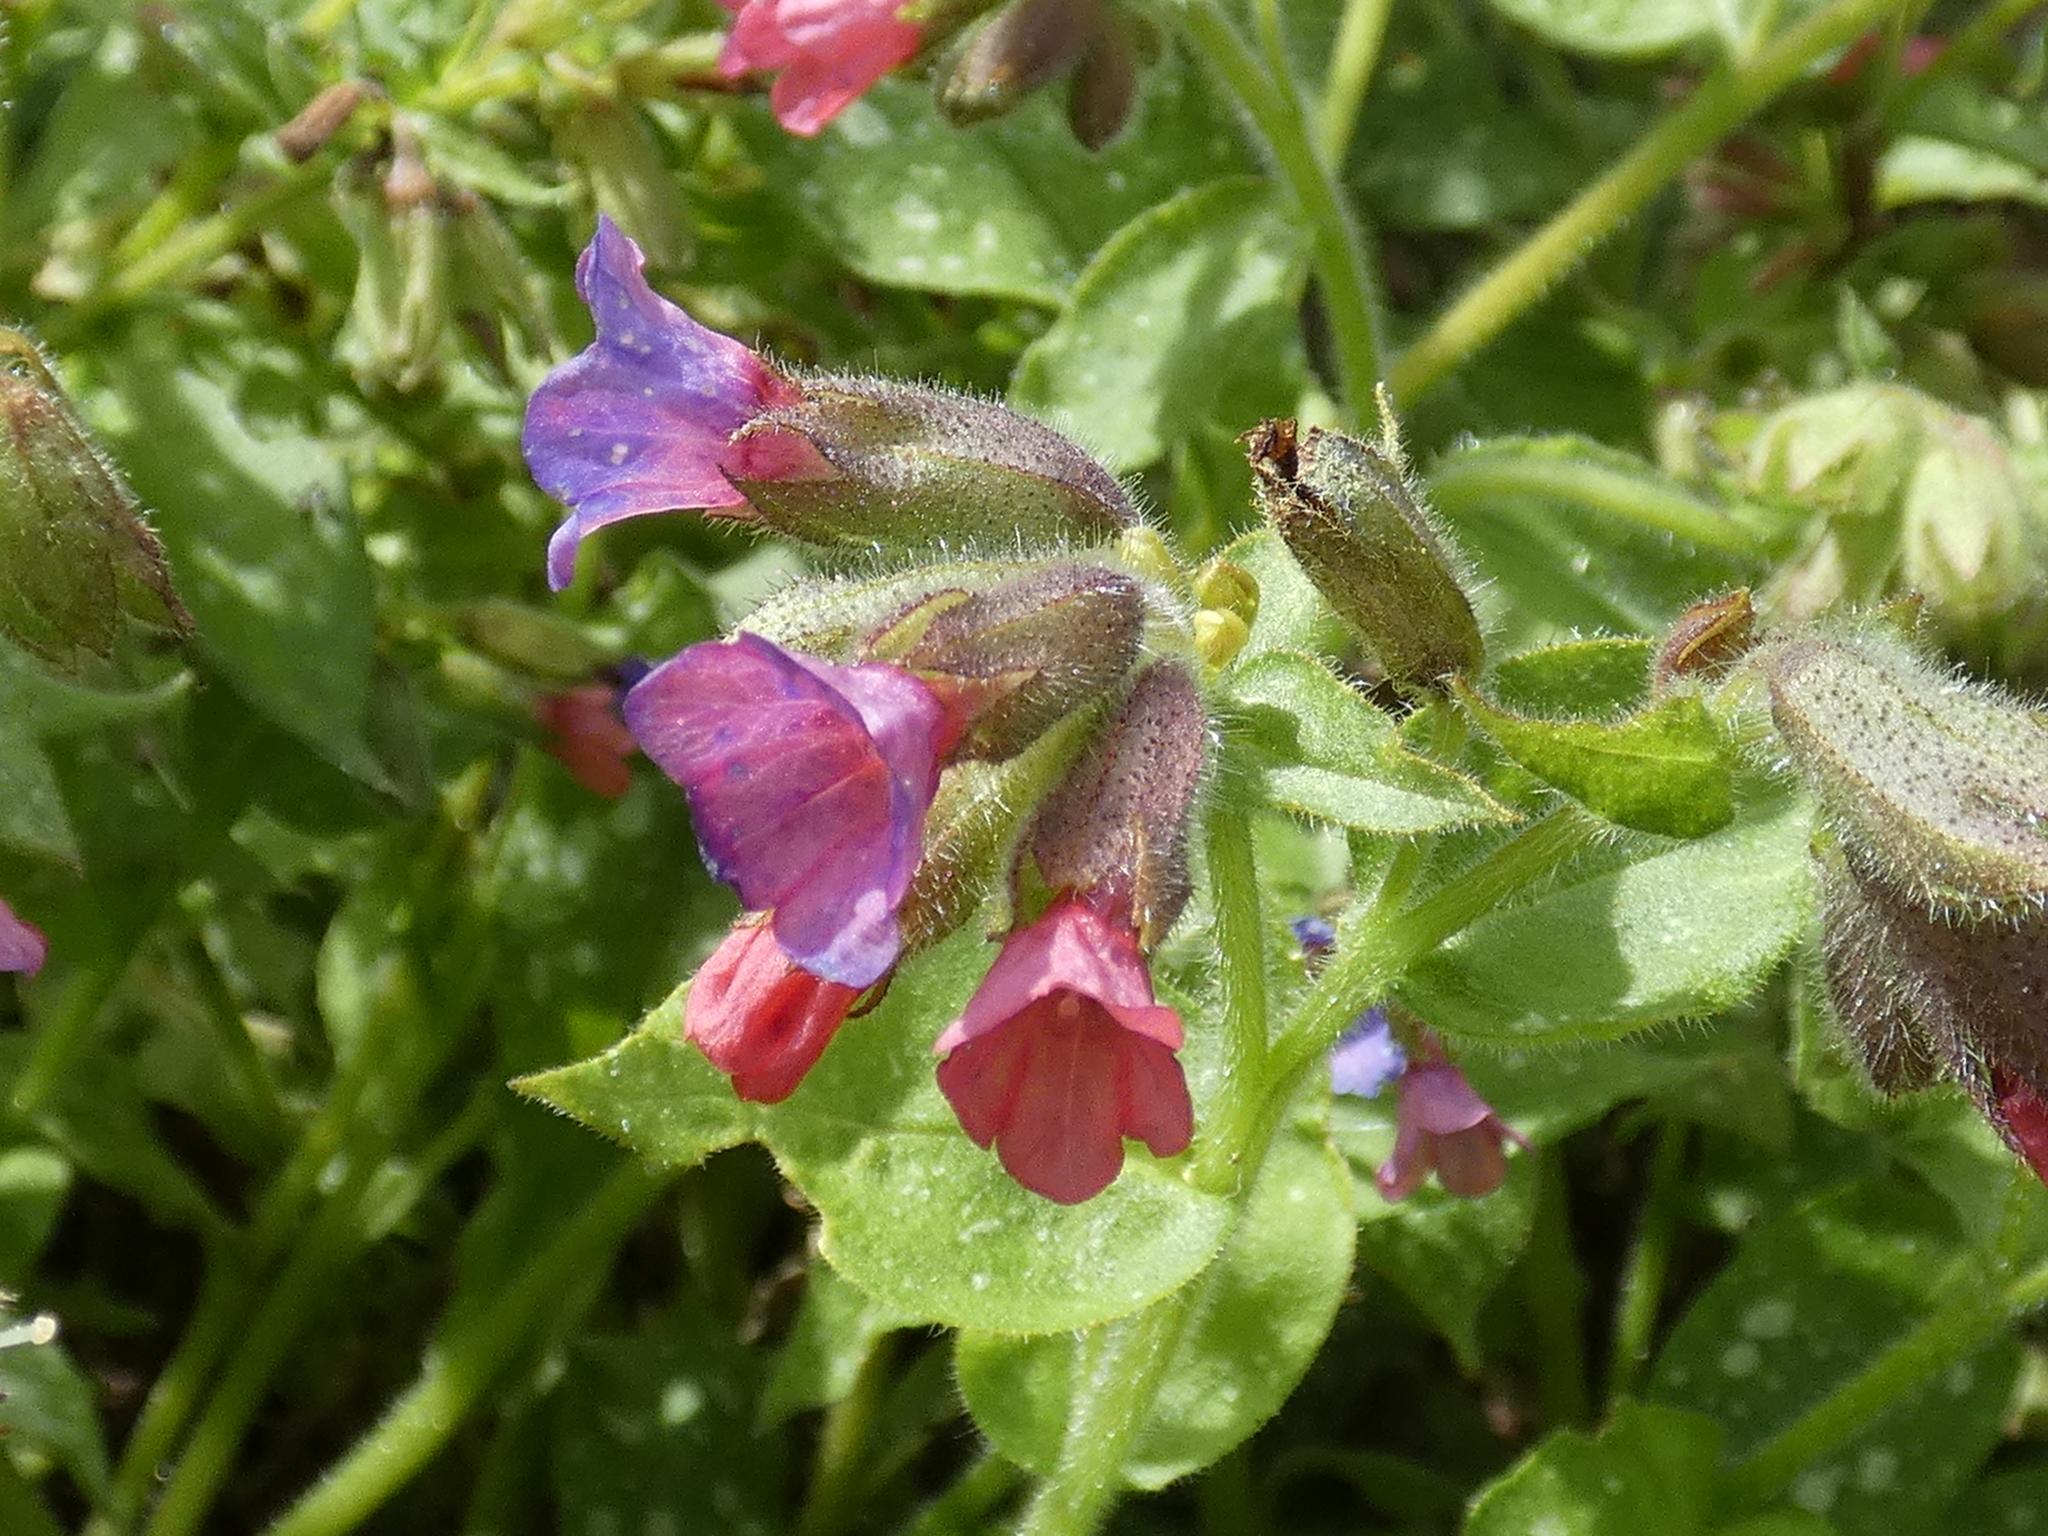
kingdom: Plantae
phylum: Tracheophyta
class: Magnoliopsida
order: Boraginales
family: Boraginaceae
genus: Pulmonaria
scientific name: Pulmonaria officinalis
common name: Lungwort
